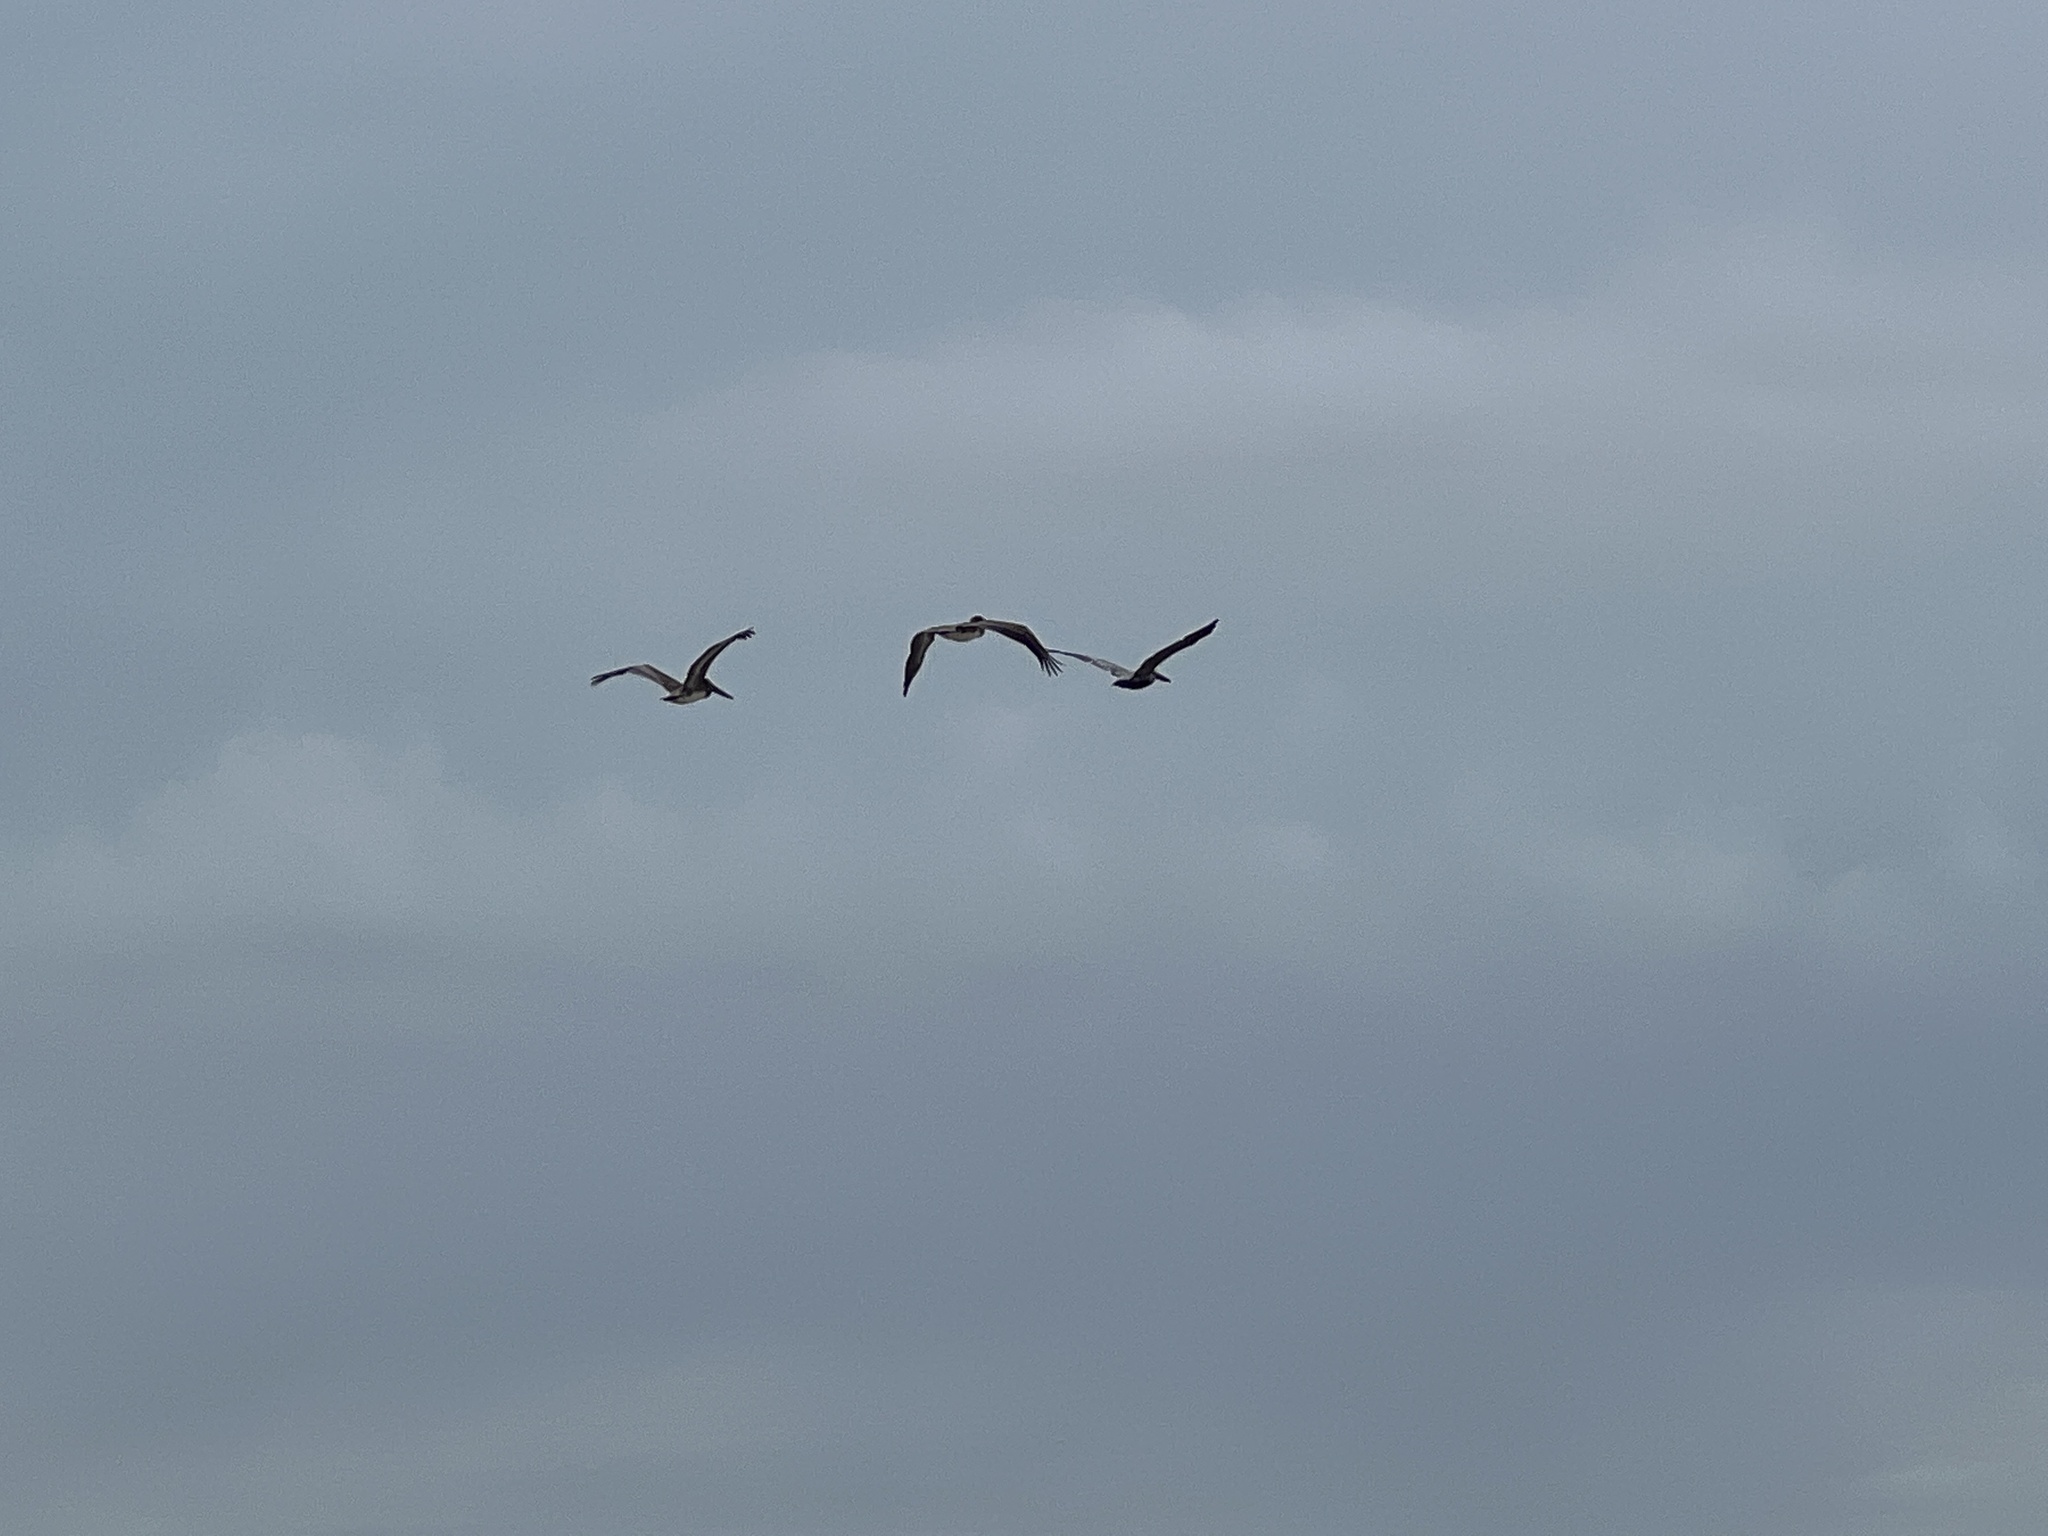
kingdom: Animalia
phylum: Chordata
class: Aves
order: Pelecaniformes
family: Pelecanidae
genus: Pelecanus
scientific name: Pelecanus occidentalis
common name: Brown pelican
